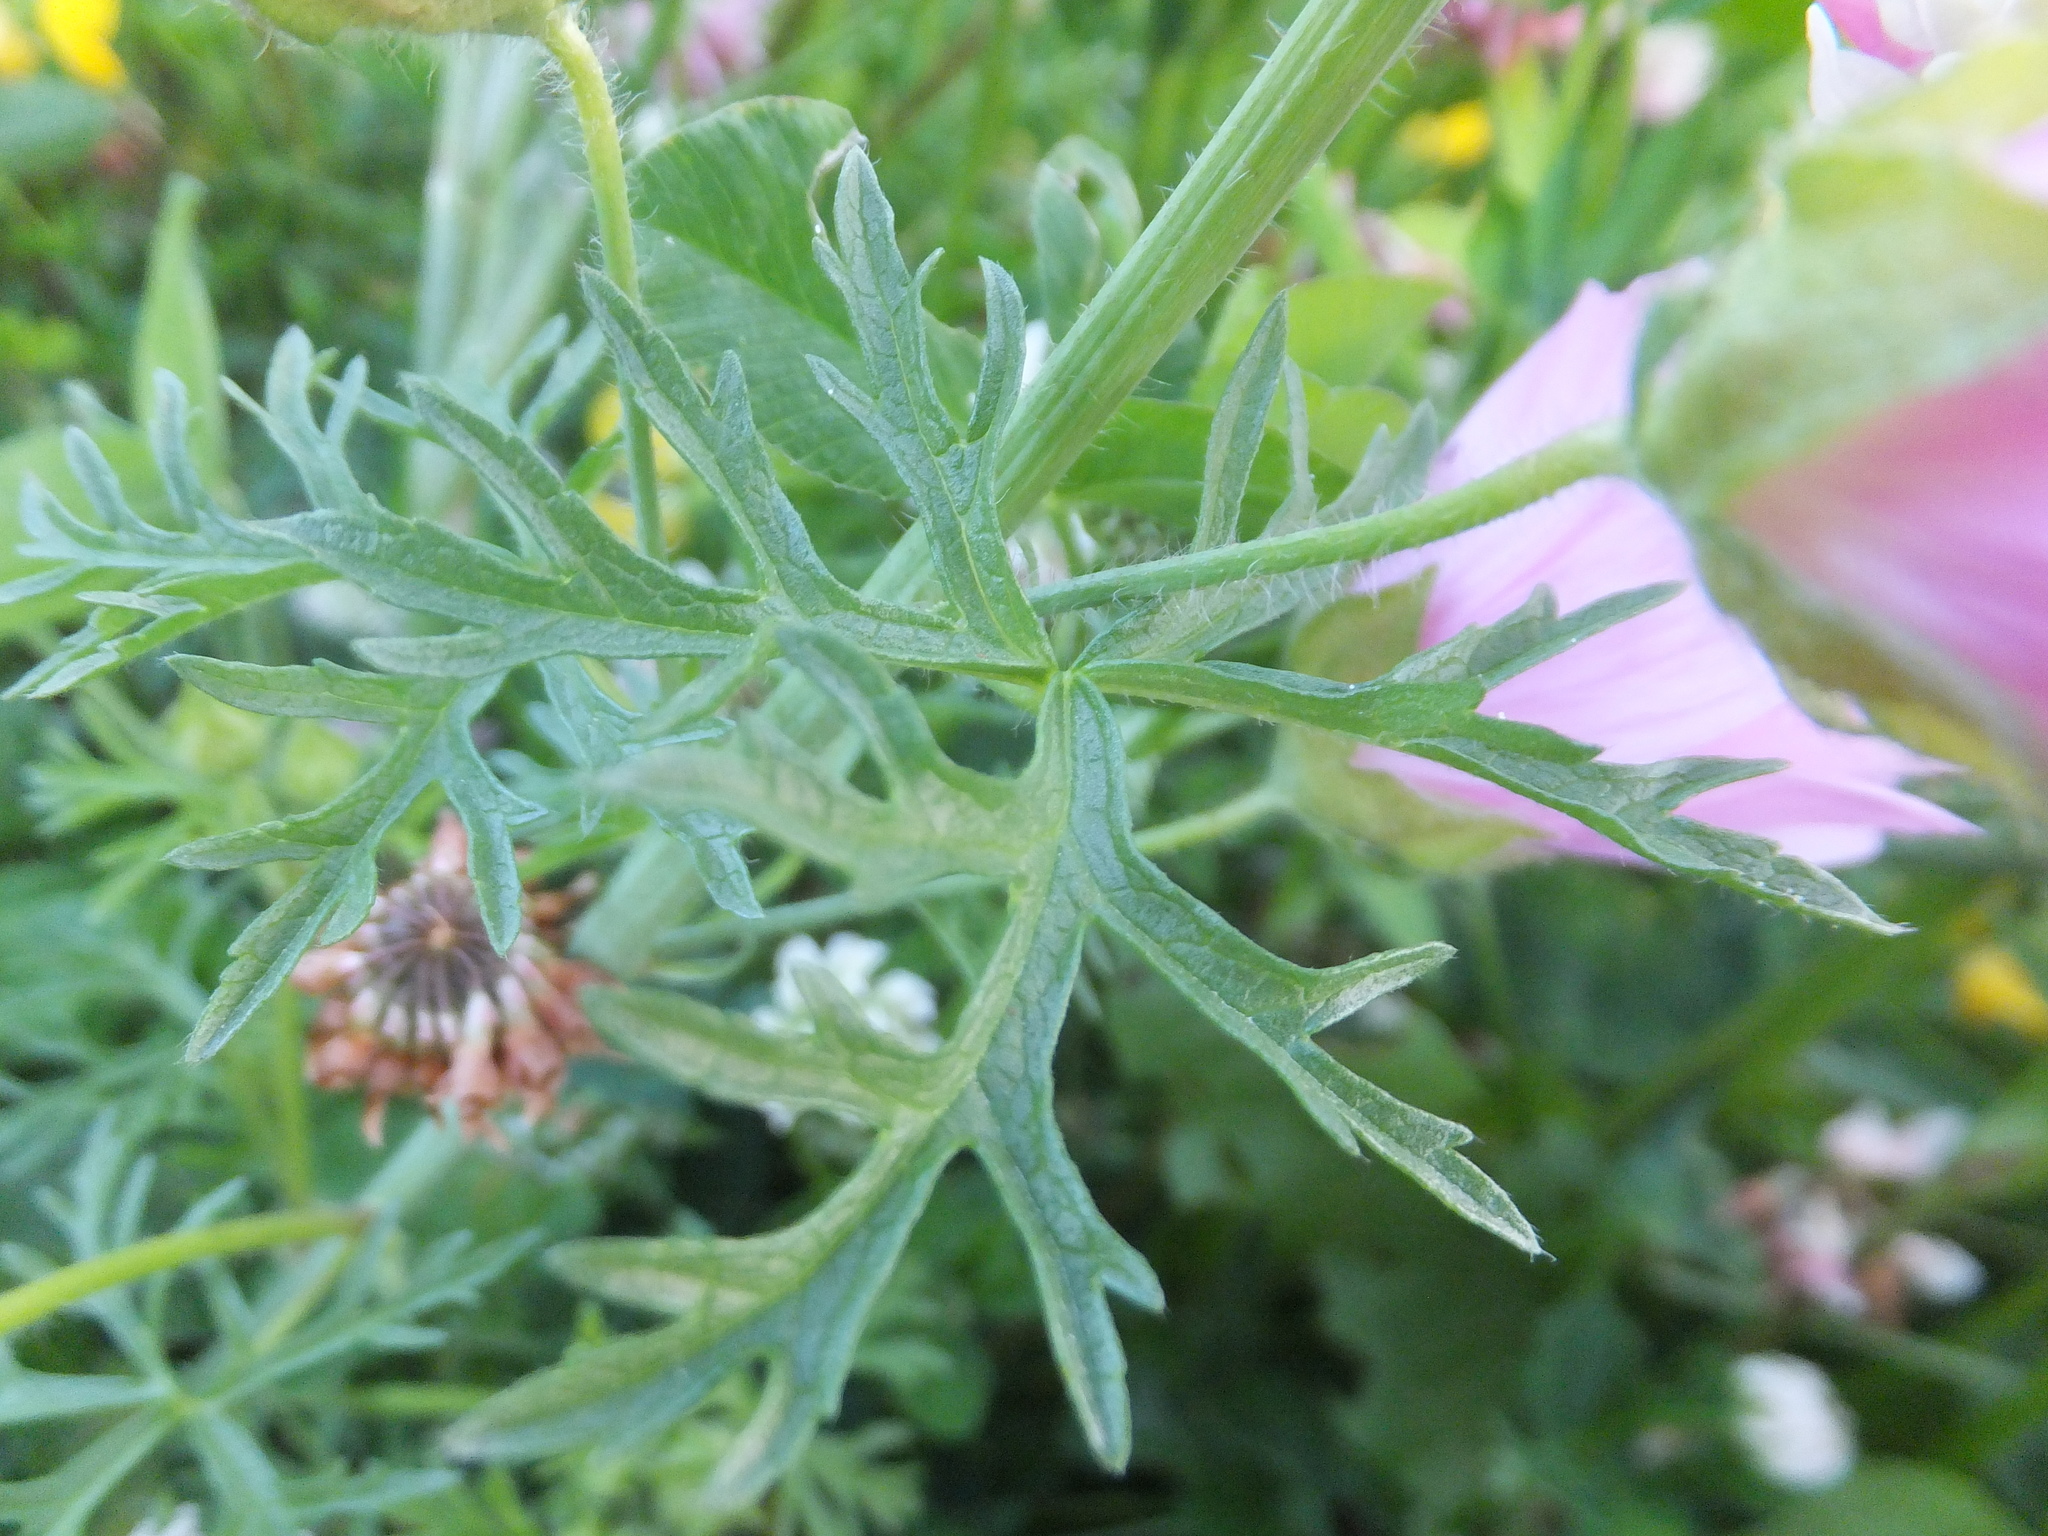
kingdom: Plantae
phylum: Tracheophyta
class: Magnoliopsida
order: Malvales
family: Malvaceae
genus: Malva
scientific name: Malva moschata
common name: Musk mallow
